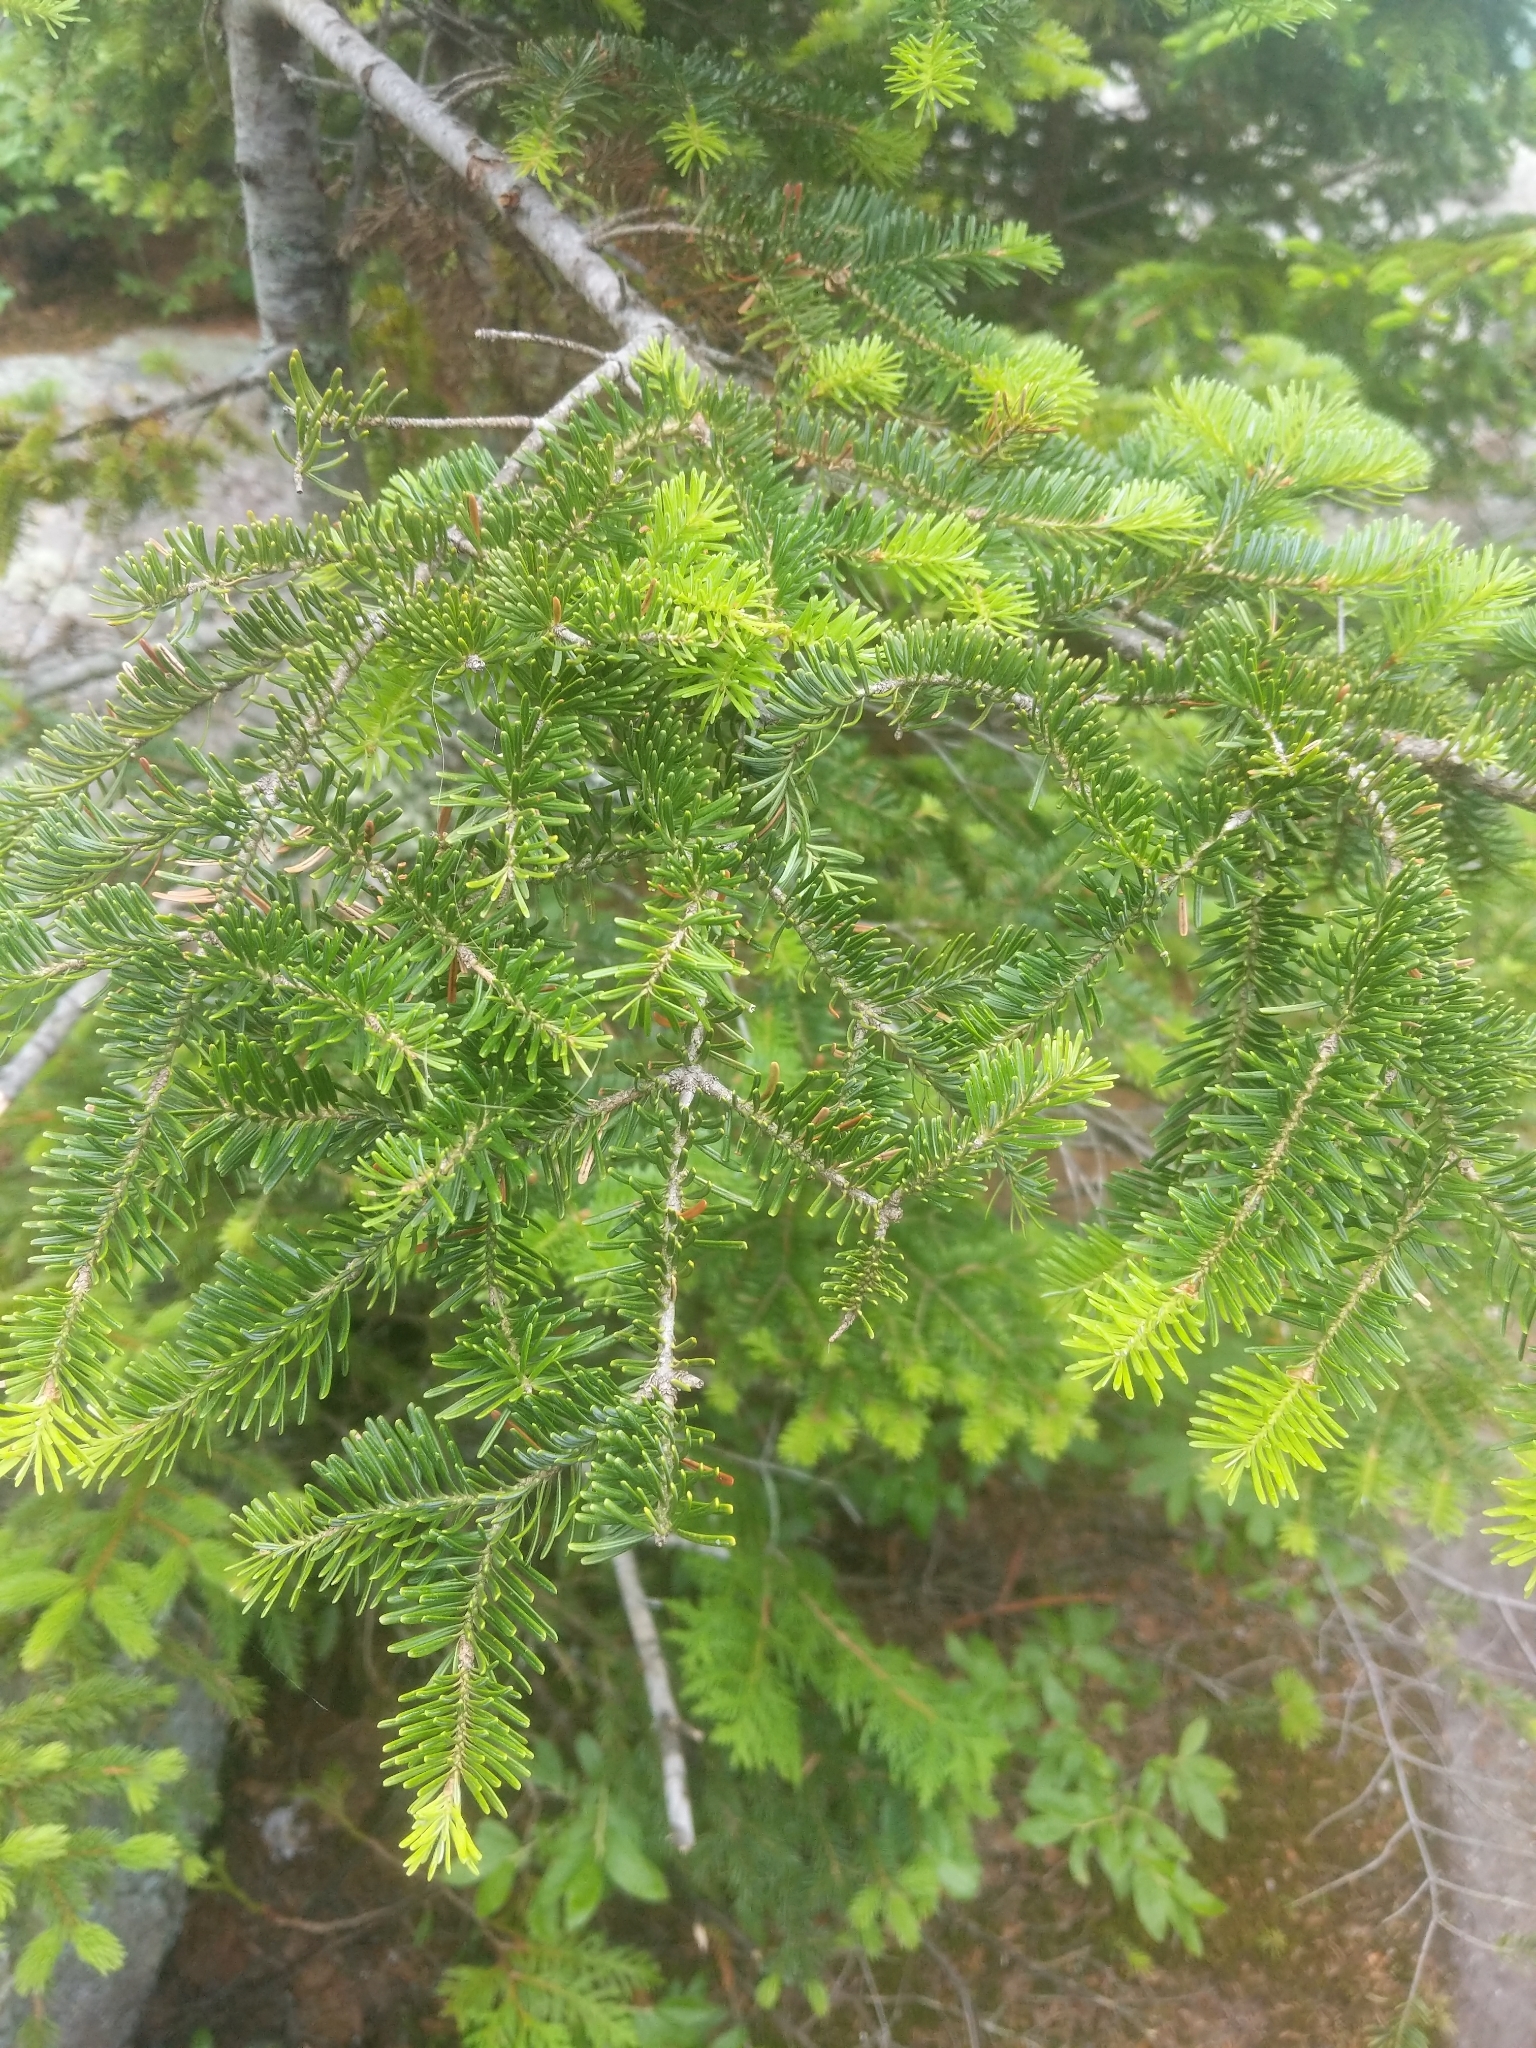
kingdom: Plantae
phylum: Tracheophyta
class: Pinopsida
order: Pinales
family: Pinaceae
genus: Abies
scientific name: Abies balsamea
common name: Balsam fir
